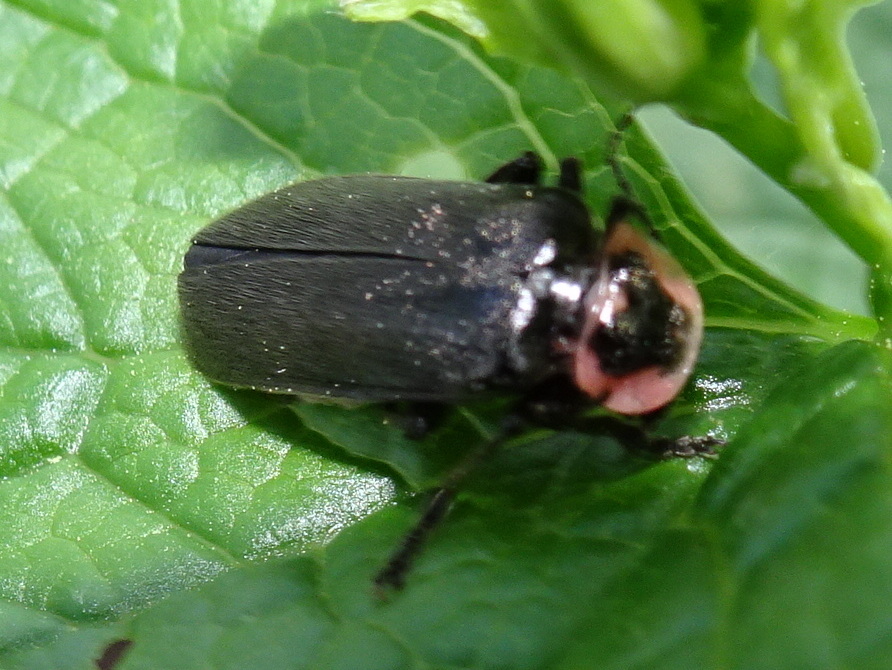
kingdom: Animalia
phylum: Arthropoda
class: Insecta
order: Coleoptera
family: Cantharidae
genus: Atalantycha
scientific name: Atalantycha neglecta
